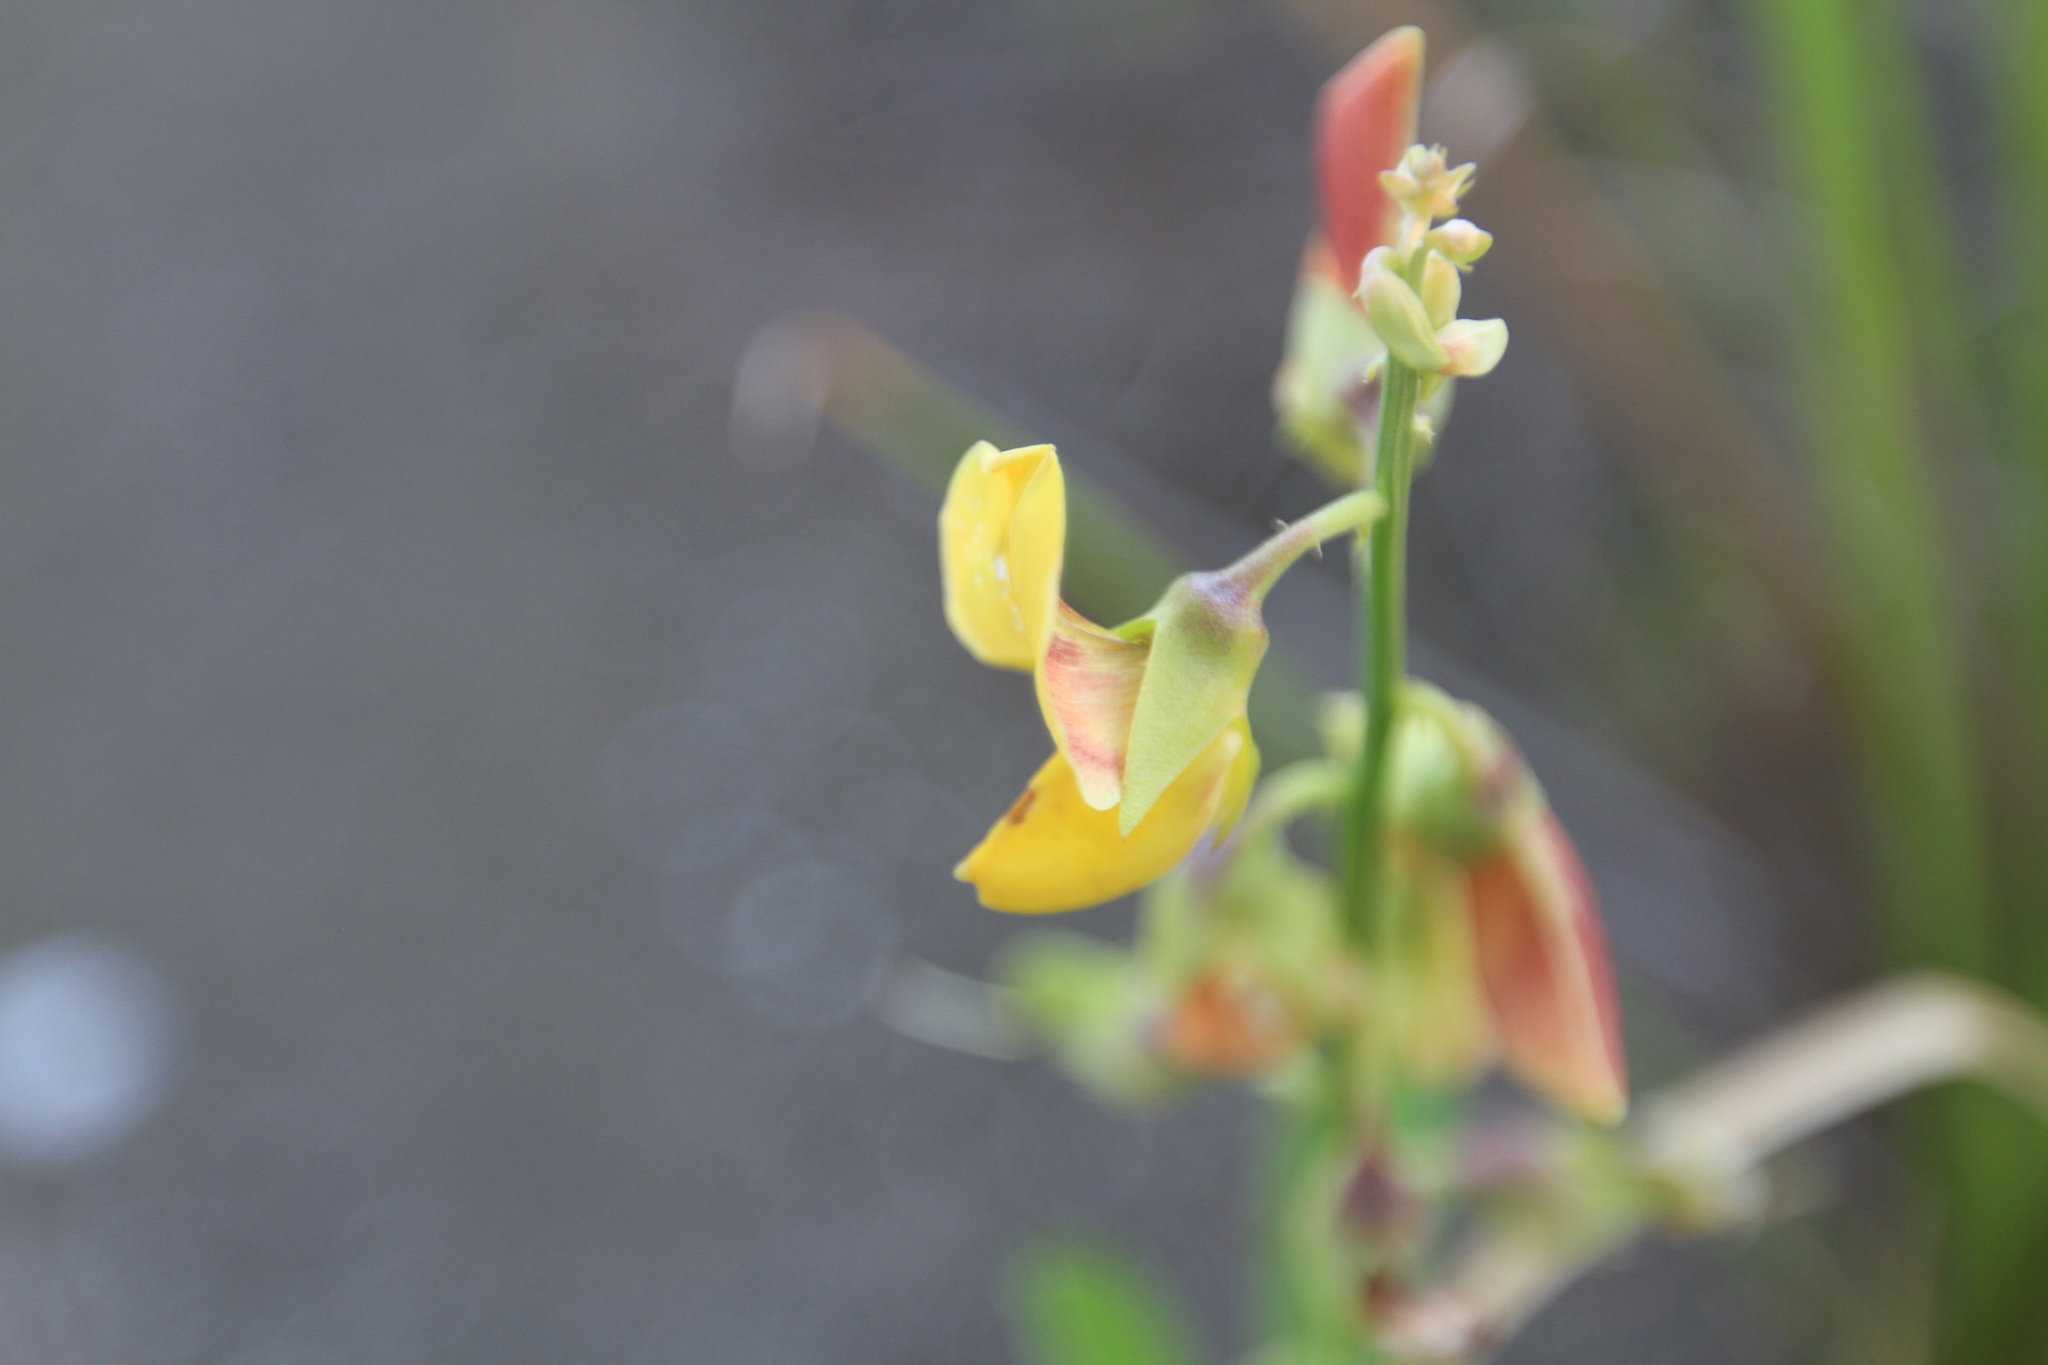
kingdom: Plantae
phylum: Tracheophyta
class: Magnoliopsida
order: Fabales
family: Fabaceae
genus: Crotalaria
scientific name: Crotalaria retusa
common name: Rattleweed
